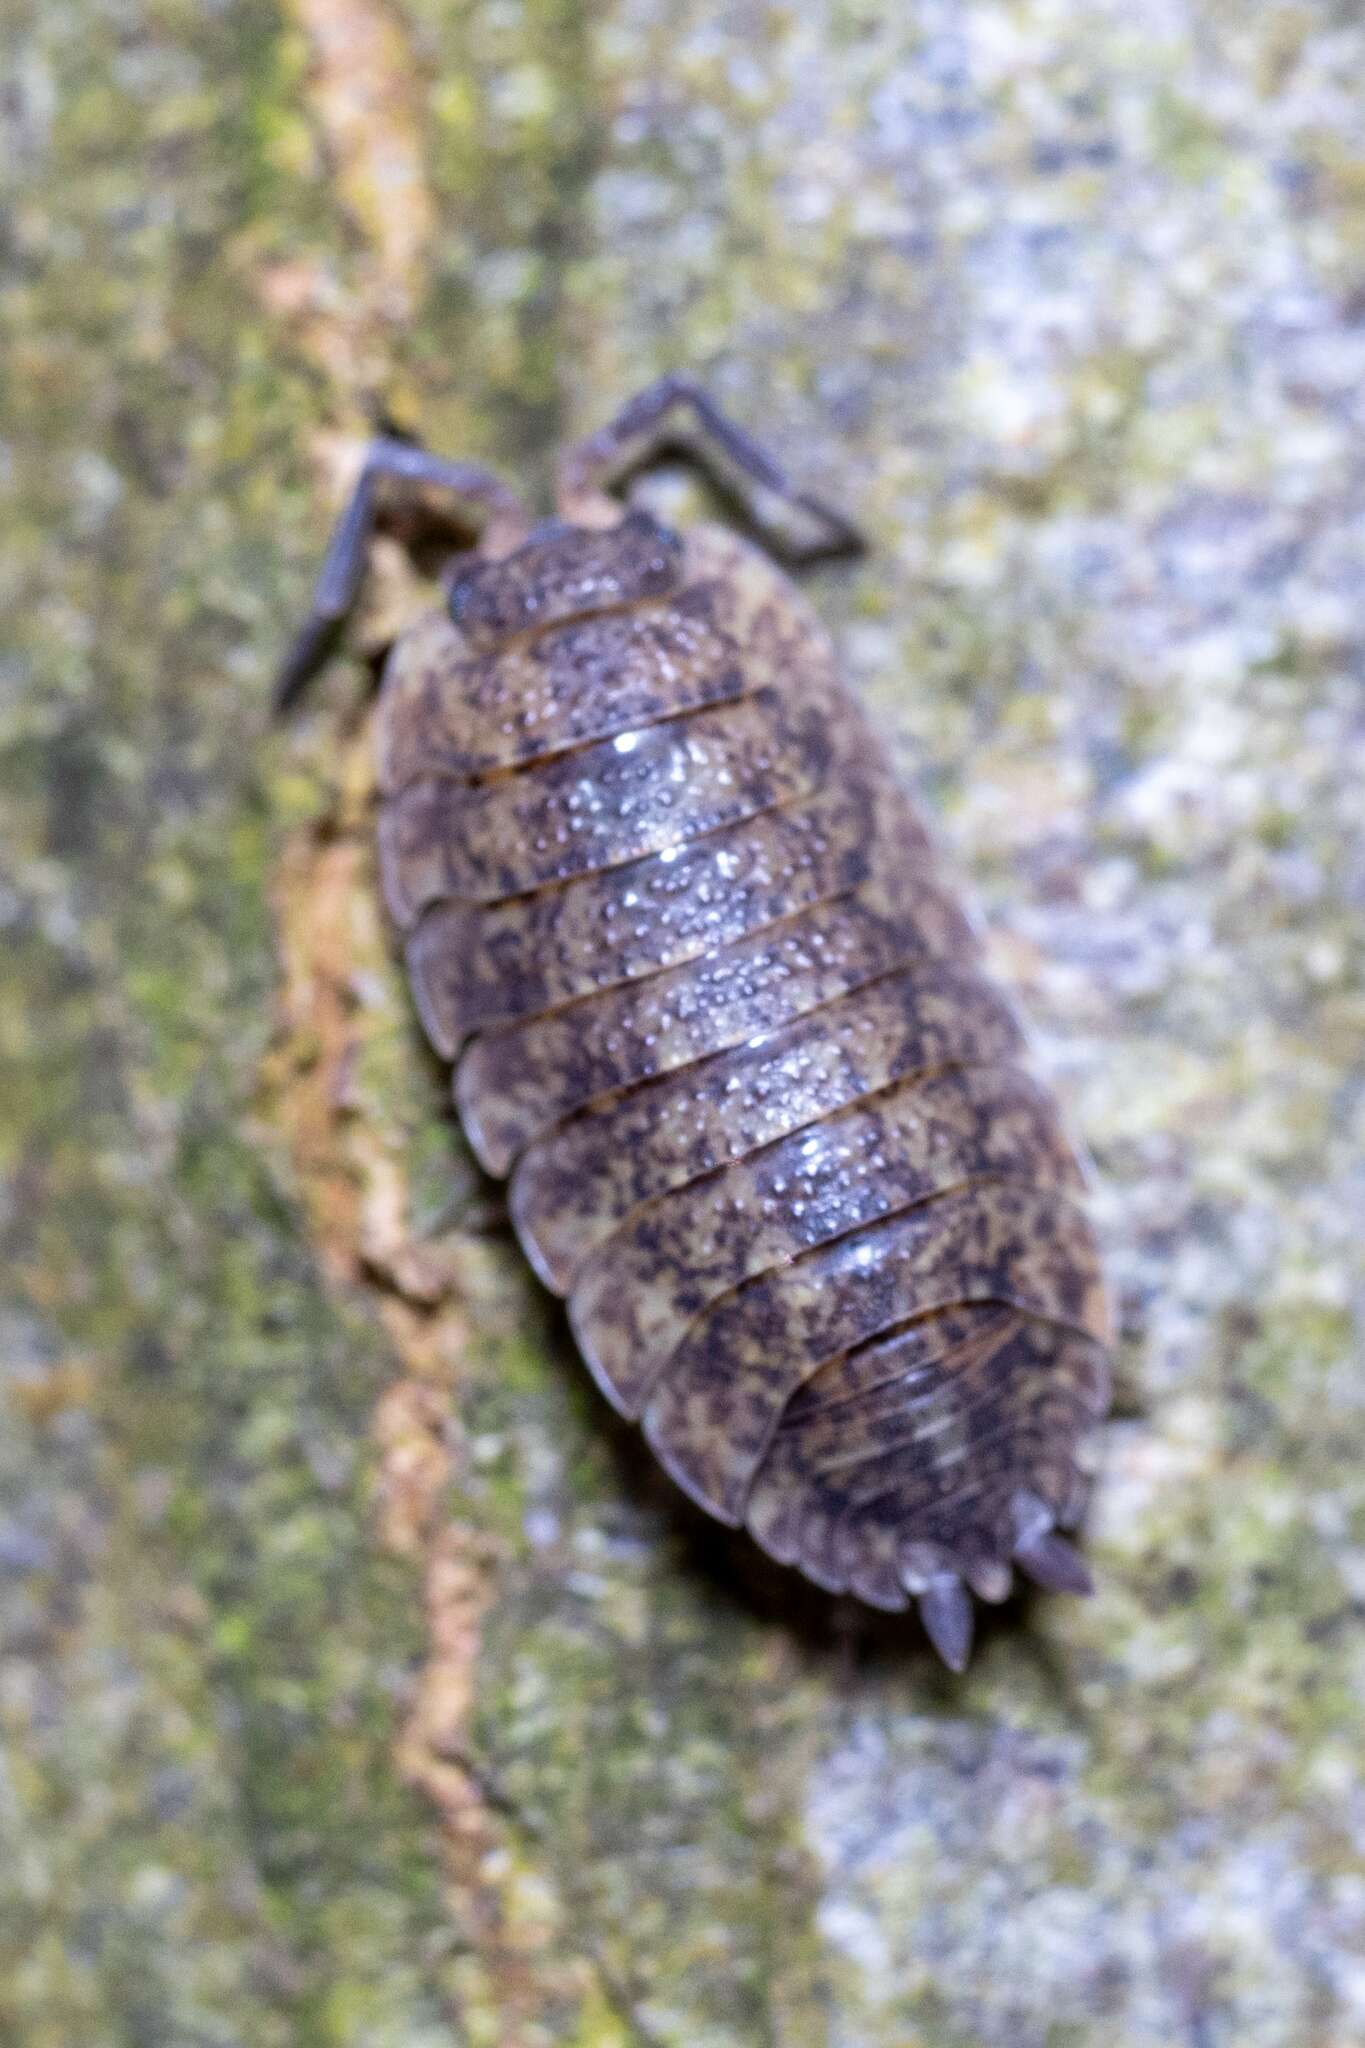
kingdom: Animalia
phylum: Arthropoda
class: Malacostraca
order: Isopoda
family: Porcellionidae
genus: Porcellio
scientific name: Porcellio scaber
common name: Common rough woodlouse
